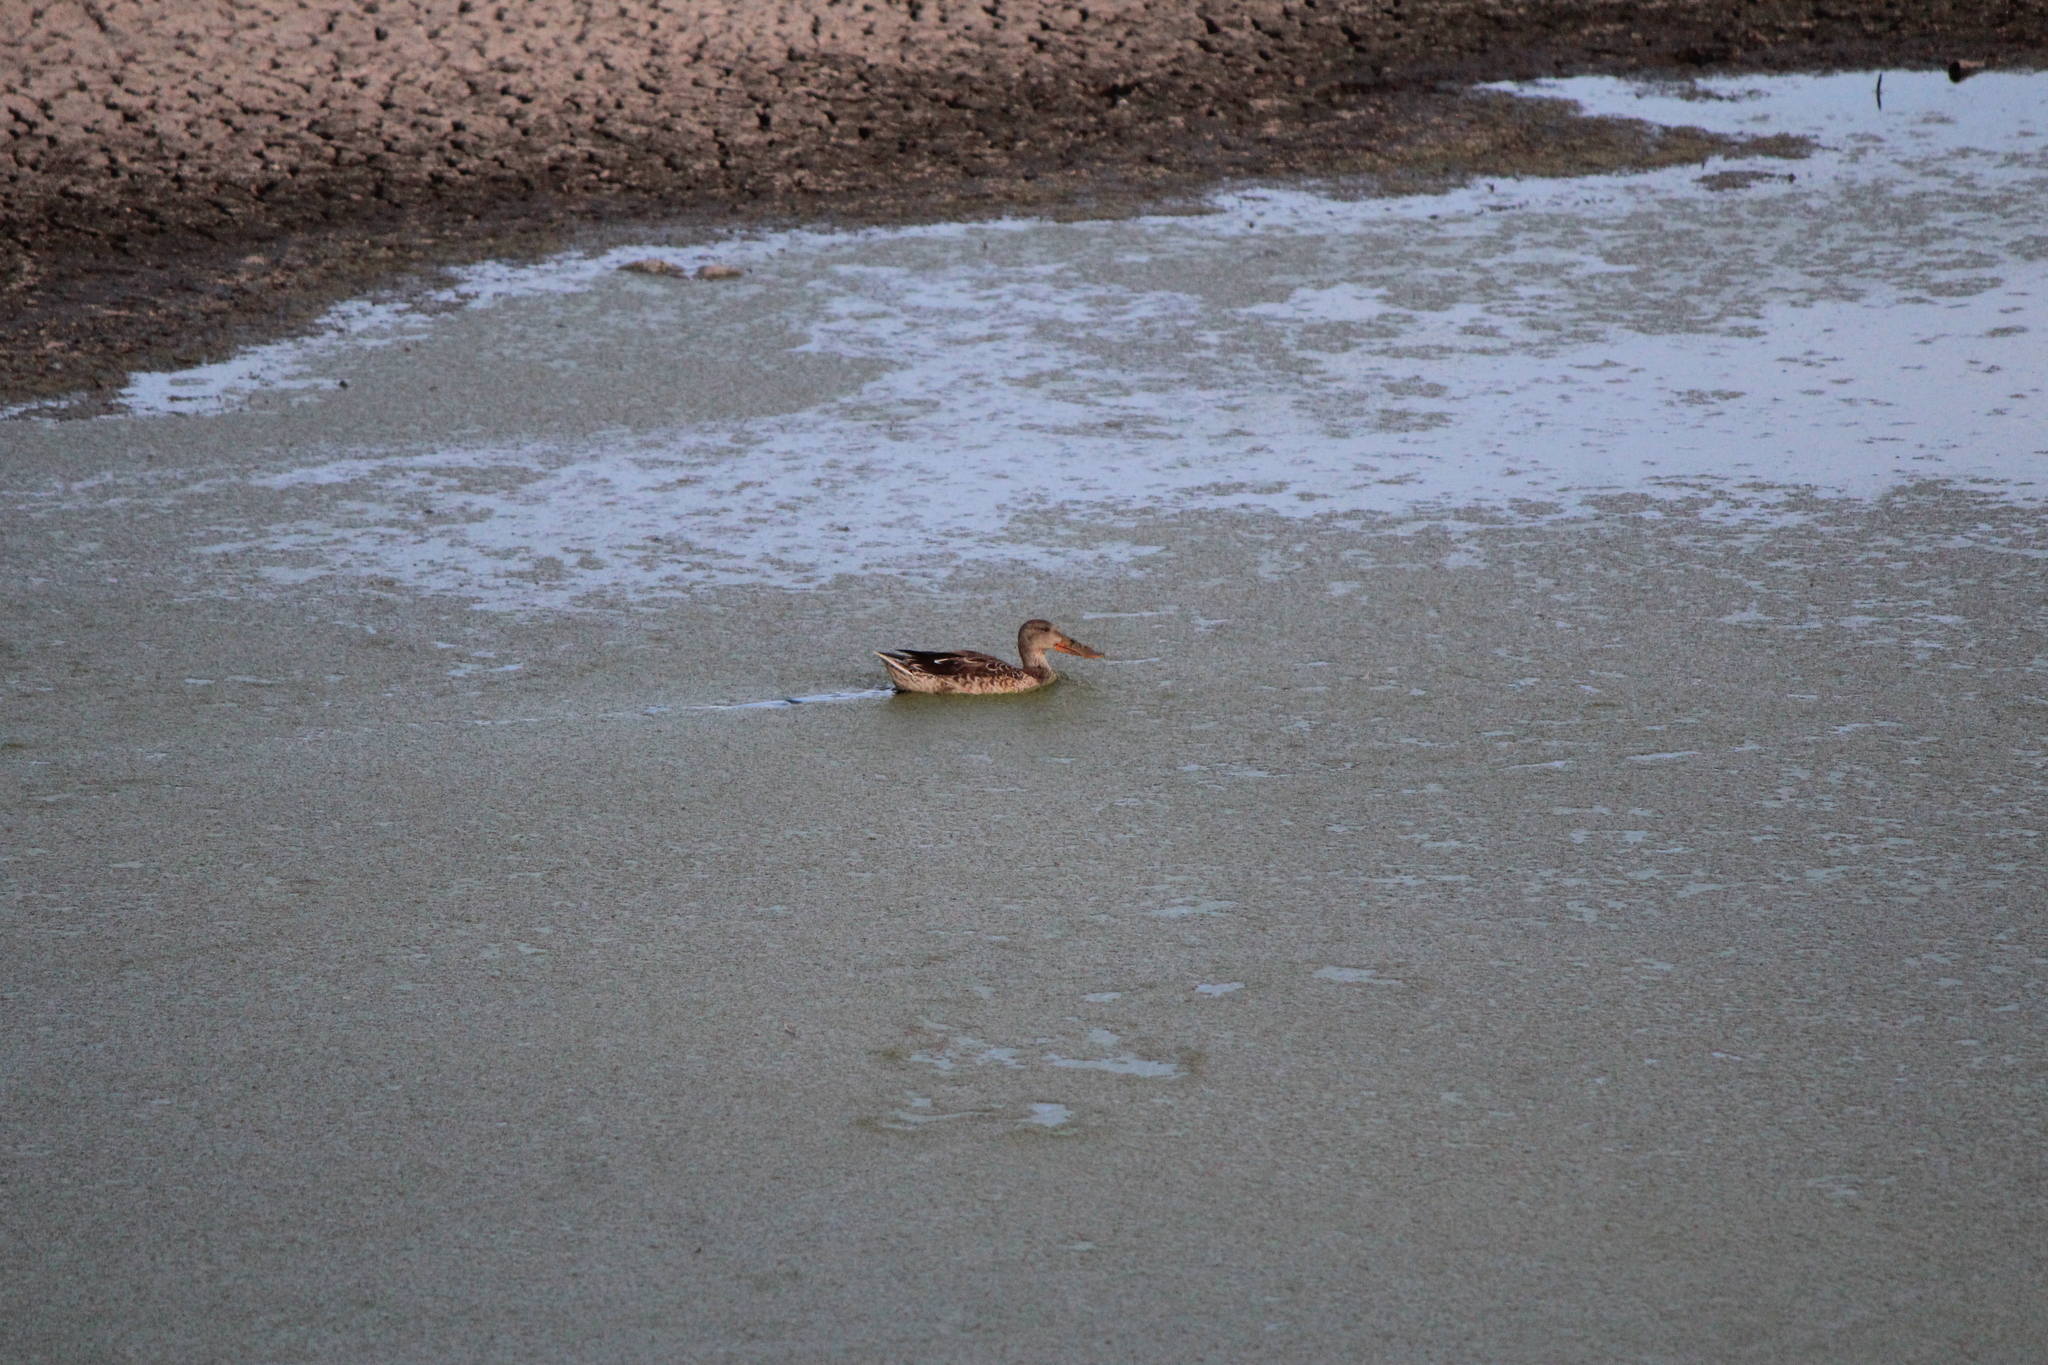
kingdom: Animalia
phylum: Chordata
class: Aves
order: Anseriformes
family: Anatidae
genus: Spatula
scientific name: Spatula clypeata
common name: Northern shoveler
